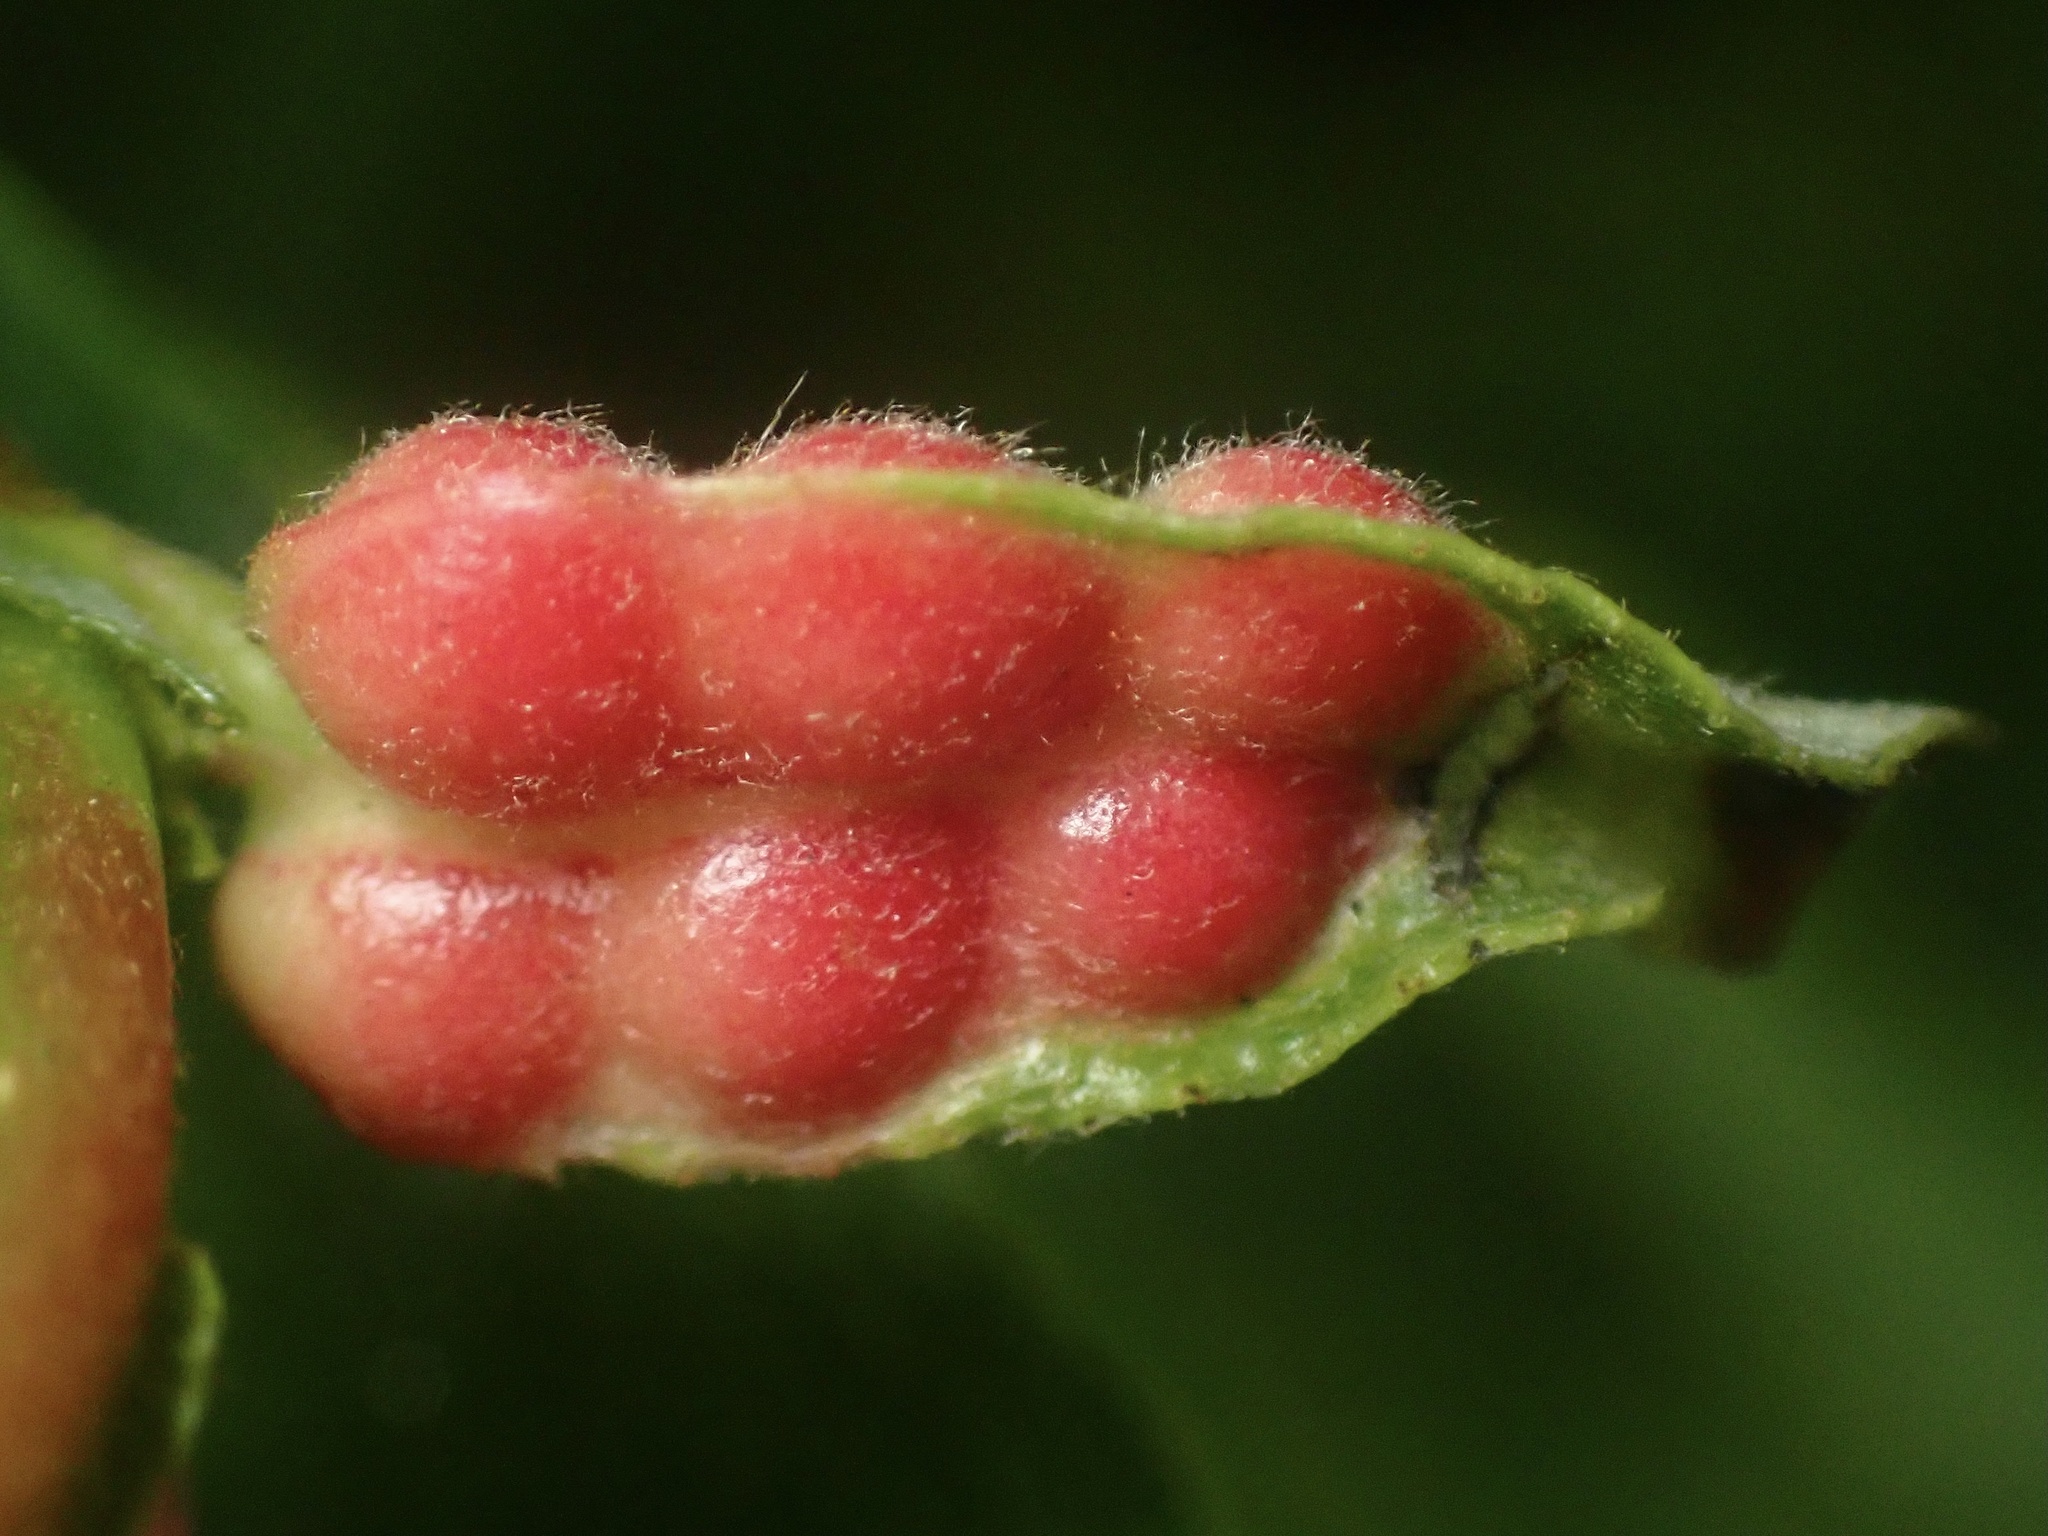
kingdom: Animalia
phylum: Arthropoda
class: Insecta
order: Hymenoptera
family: Tenthredinidae
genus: Euura
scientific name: Euura
